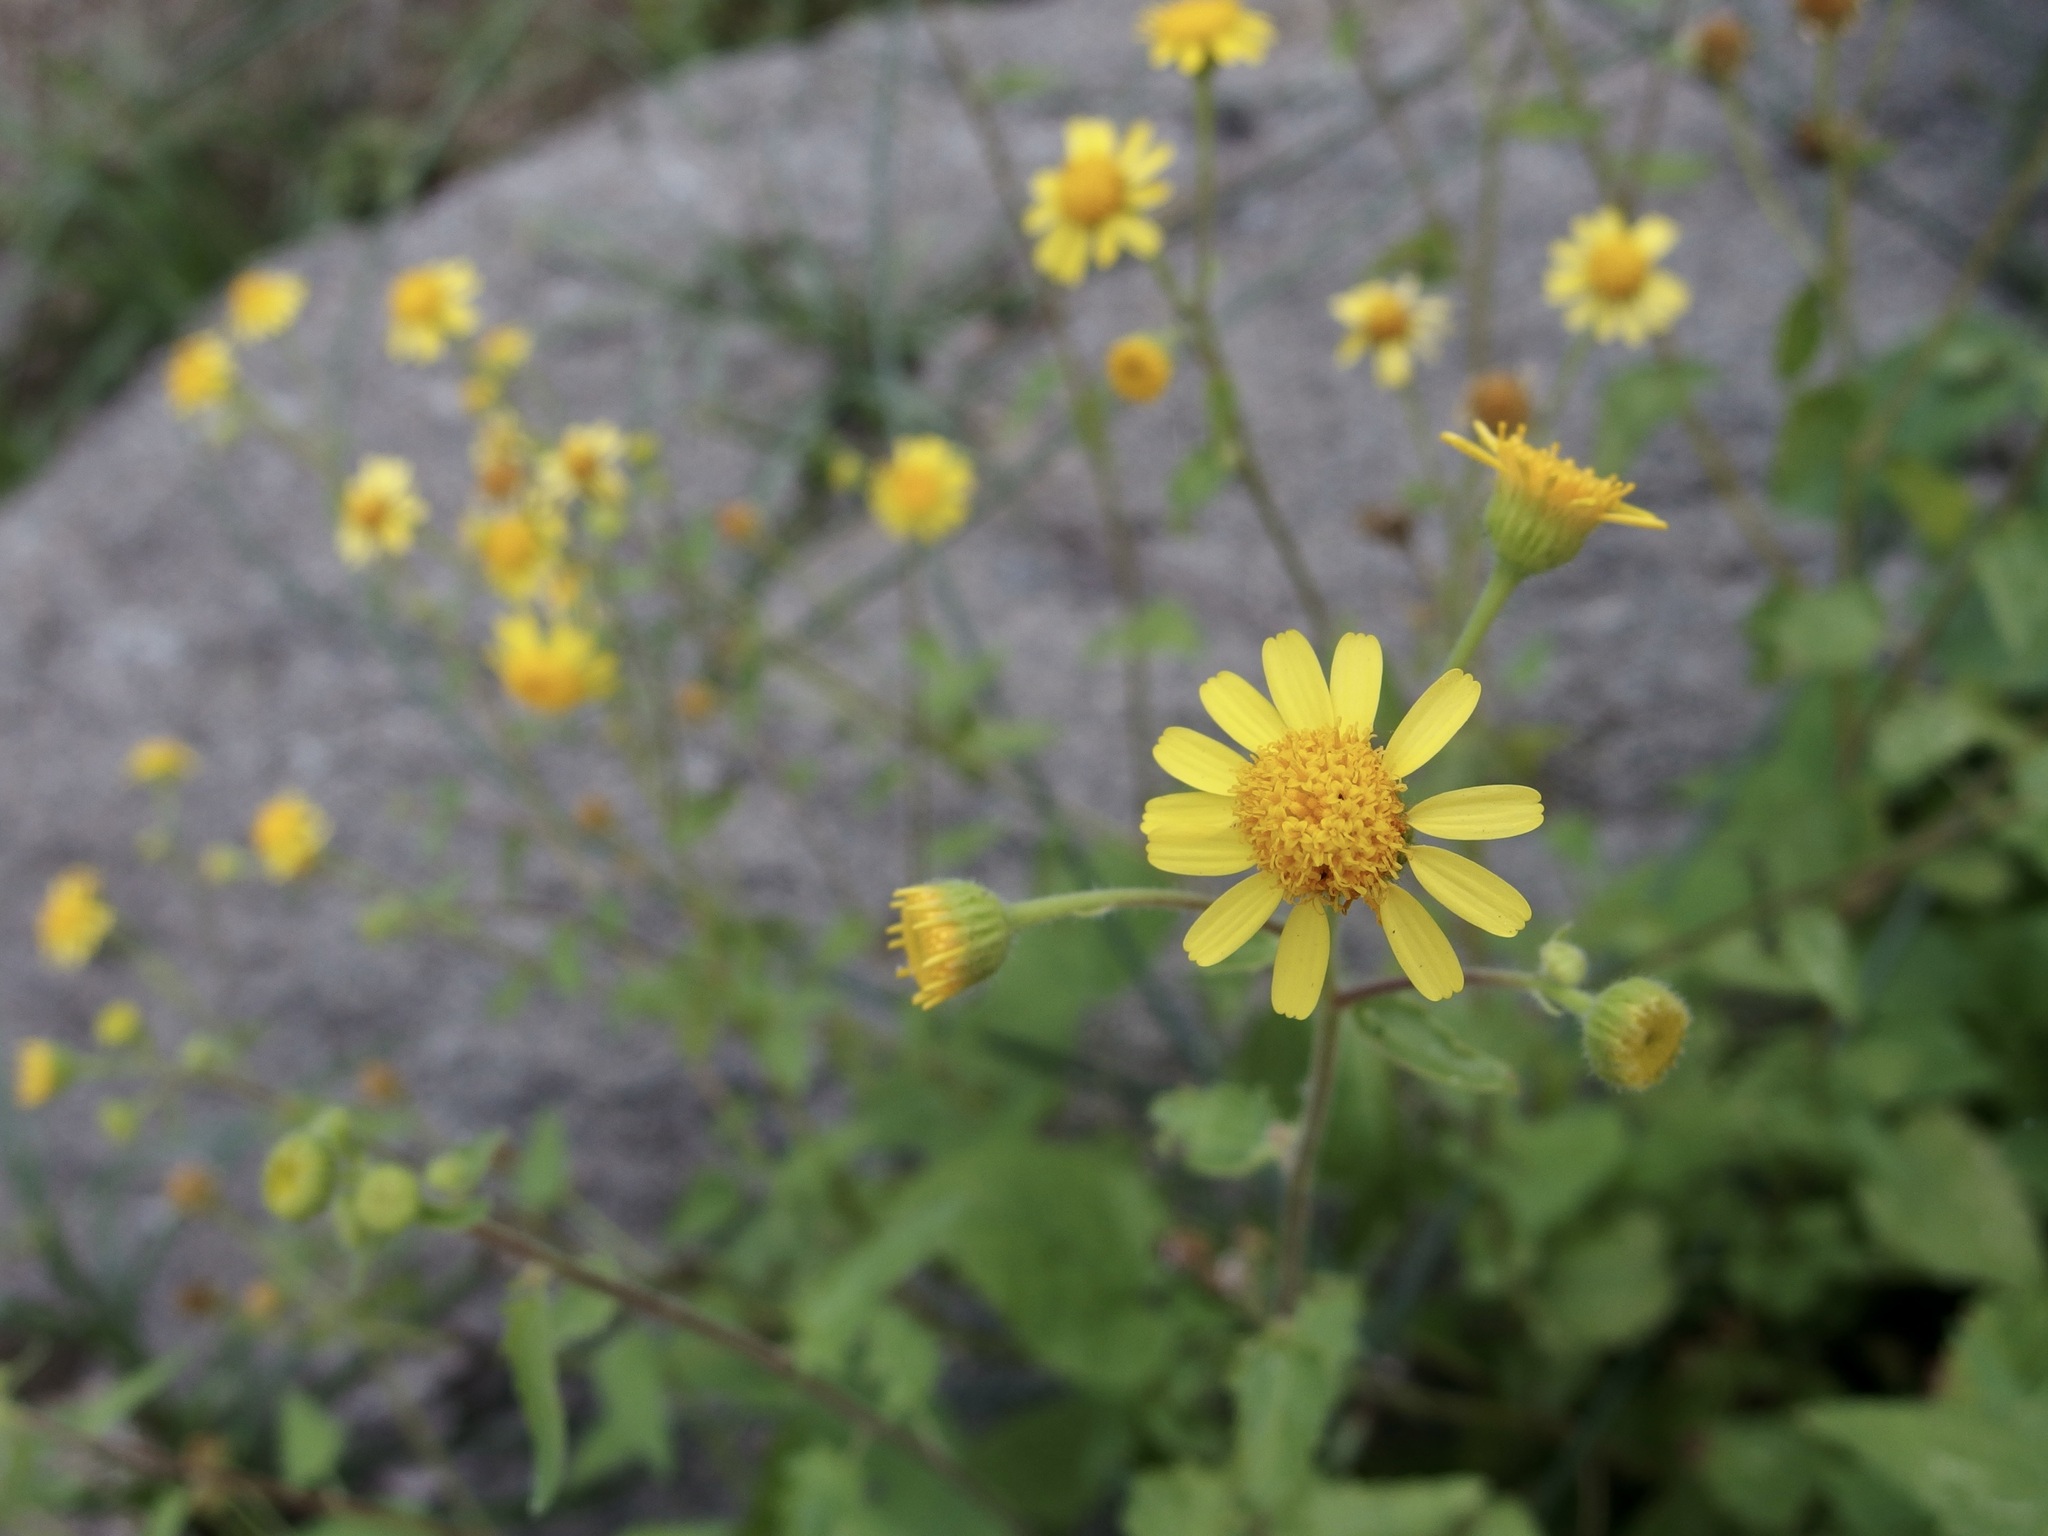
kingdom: Plantae
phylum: Tracheophyta
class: Magnoliopsida
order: Asterales
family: Asteraceae
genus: Perityle
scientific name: Perityle cuneata
